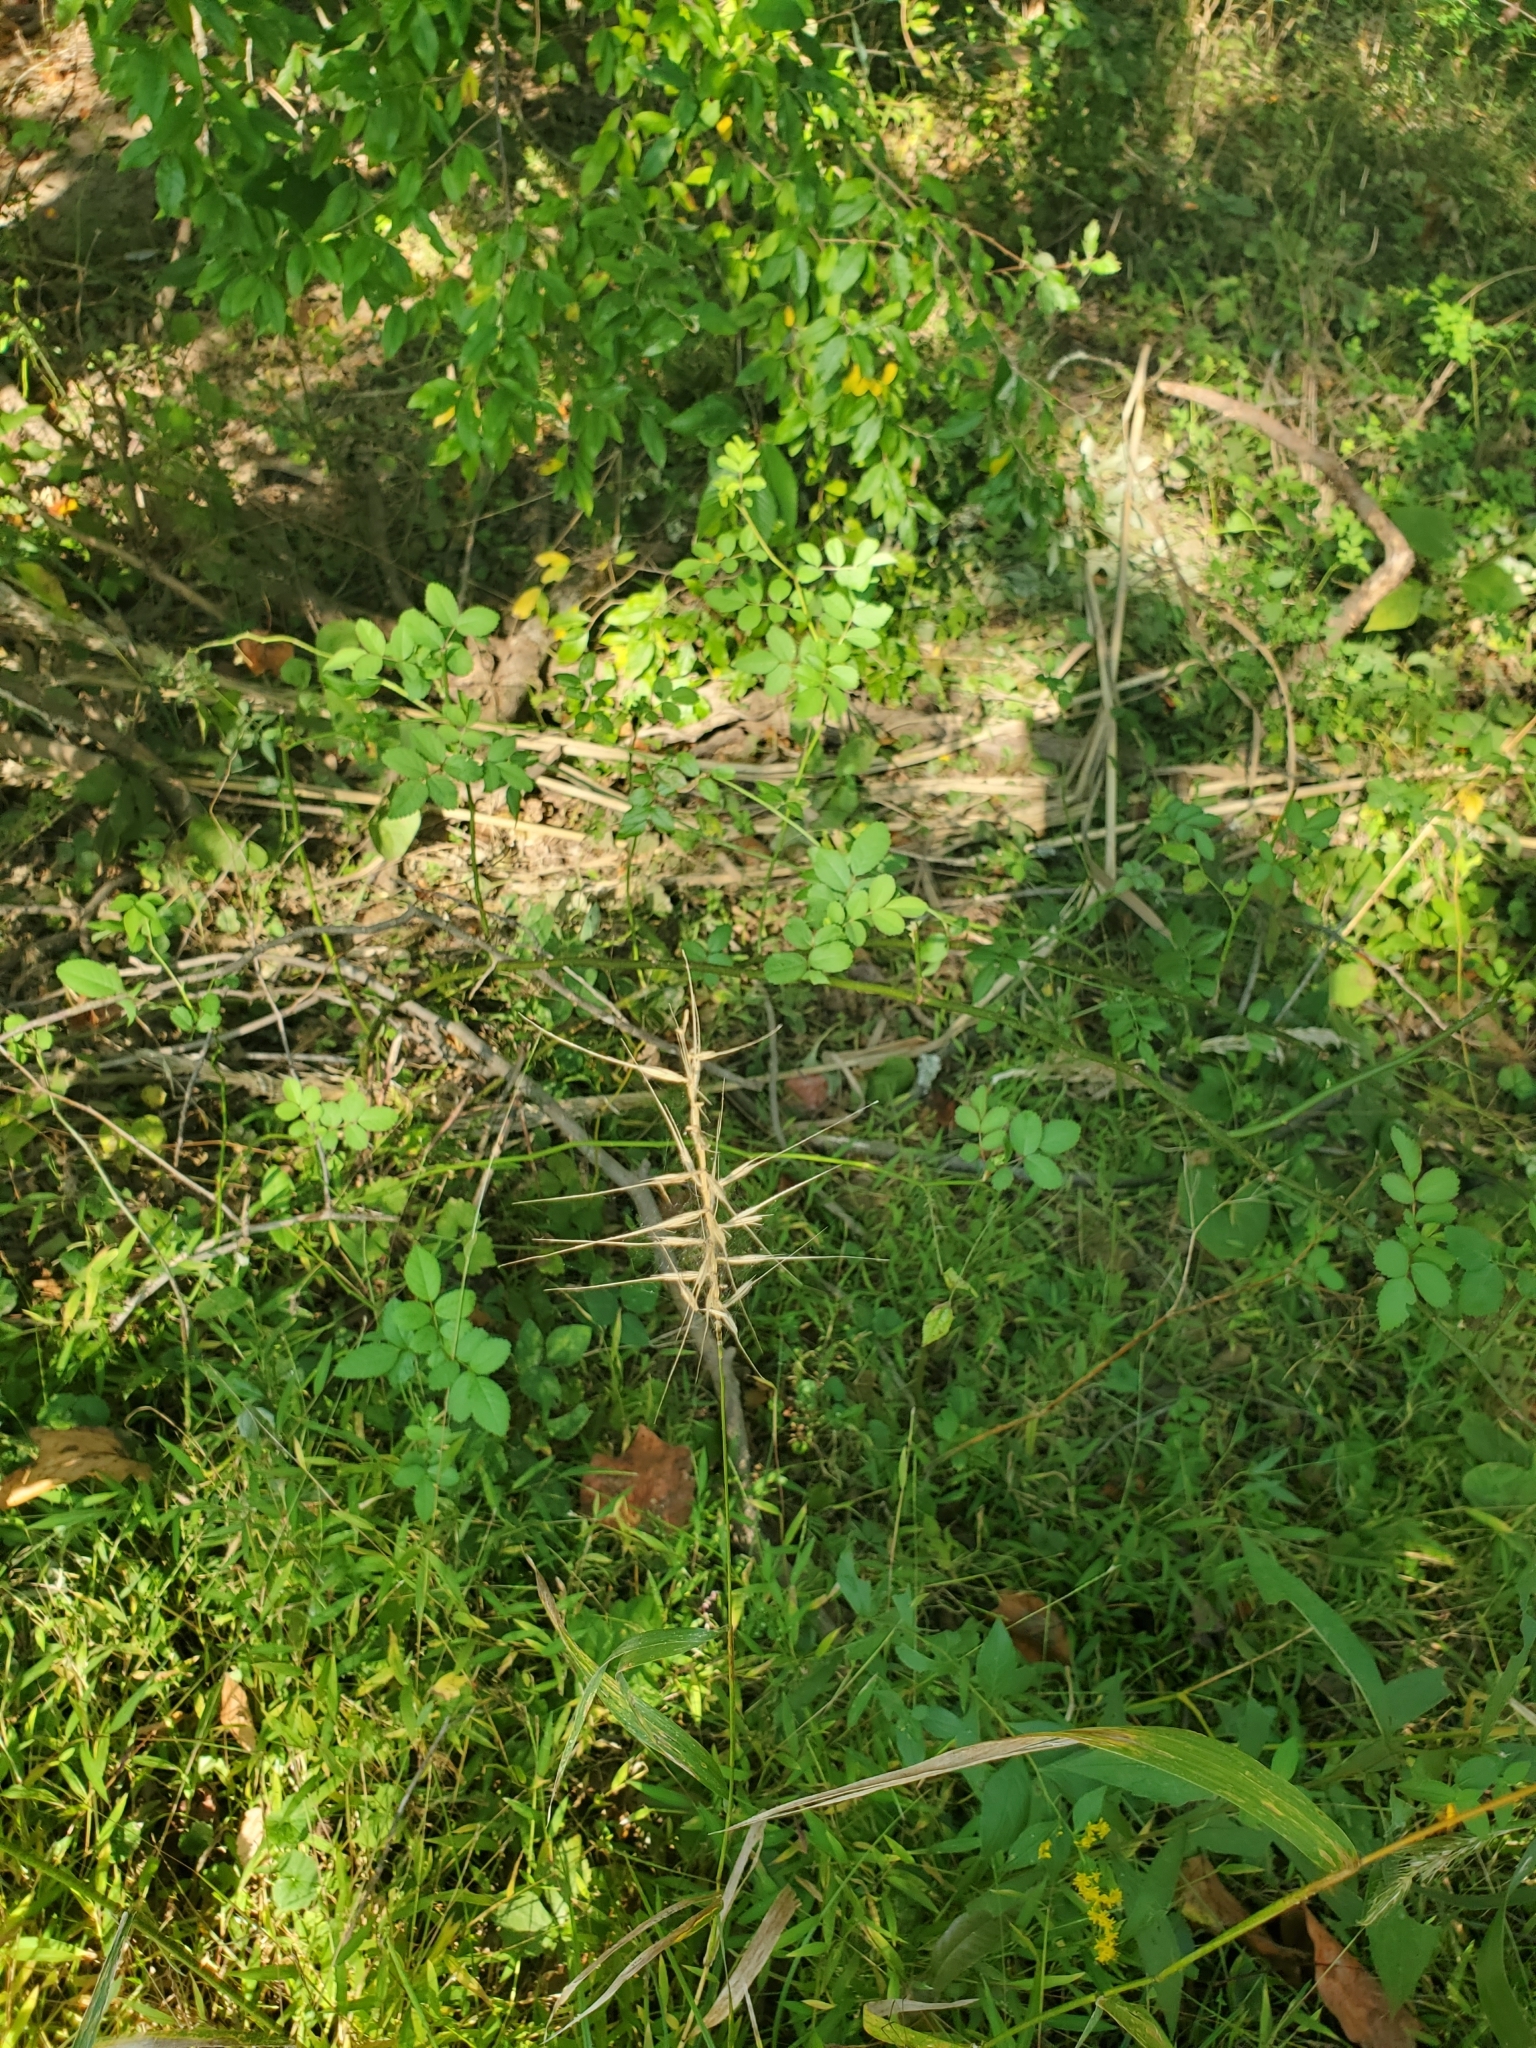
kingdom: Plantae
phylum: Tracheophyta
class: Liliopsida
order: Poales
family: Poaceae
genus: Elymus
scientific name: Elymus hystrix
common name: Bottlebrush grass
